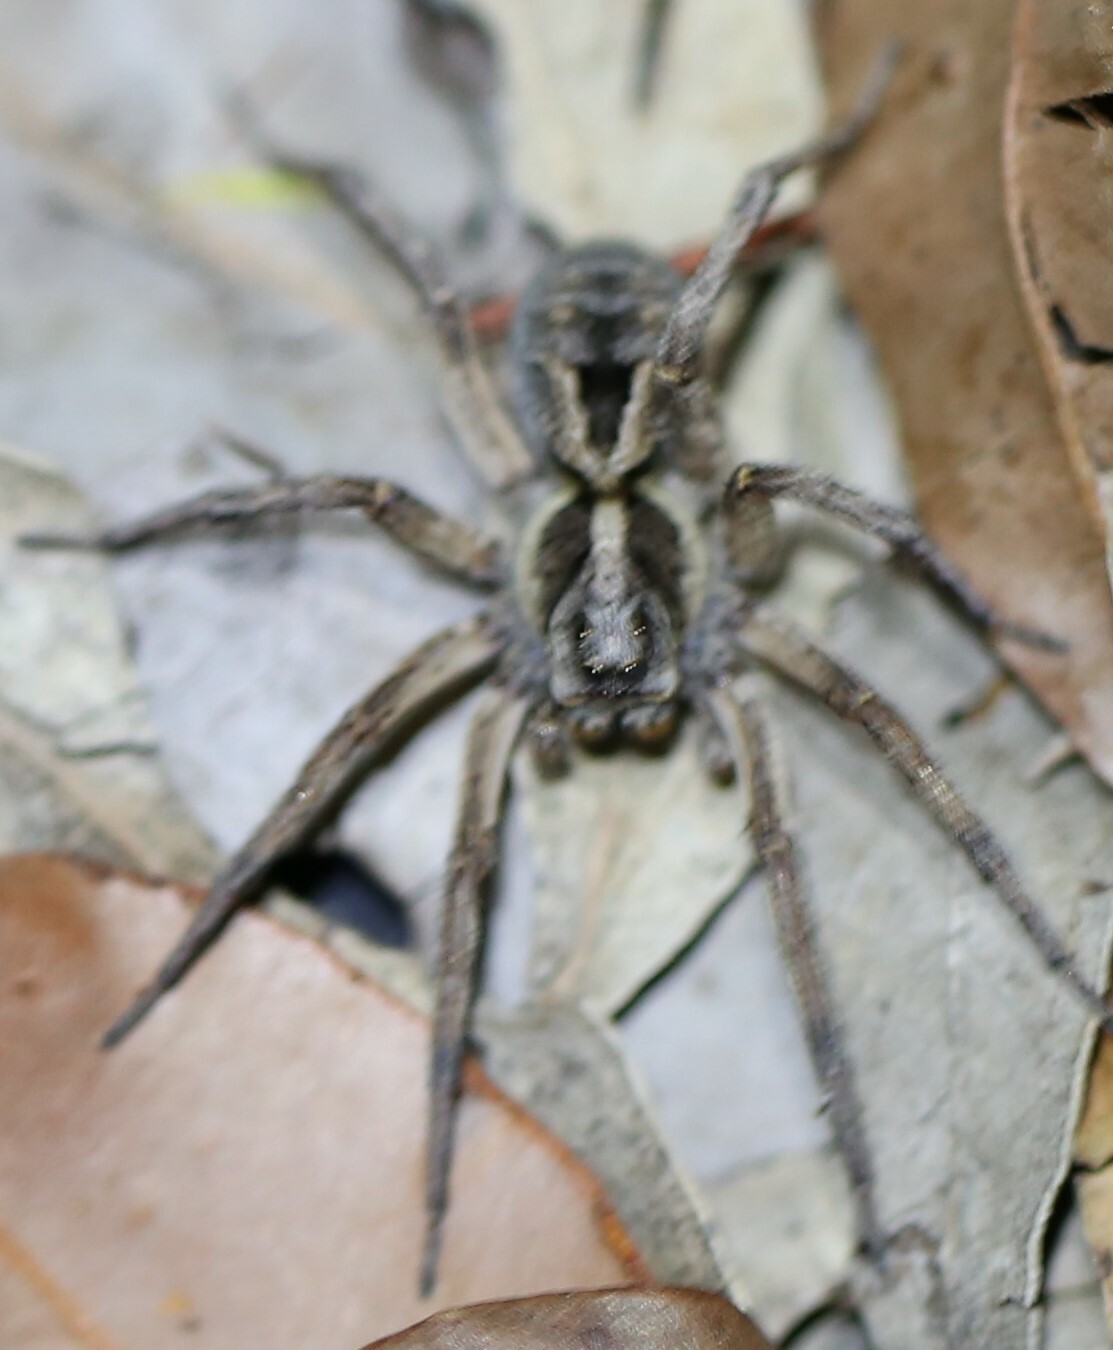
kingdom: Animalia
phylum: Arthropoda
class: Arachnida
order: Araneae
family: Lycosidae
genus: Venator
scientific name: Venator spenceri
